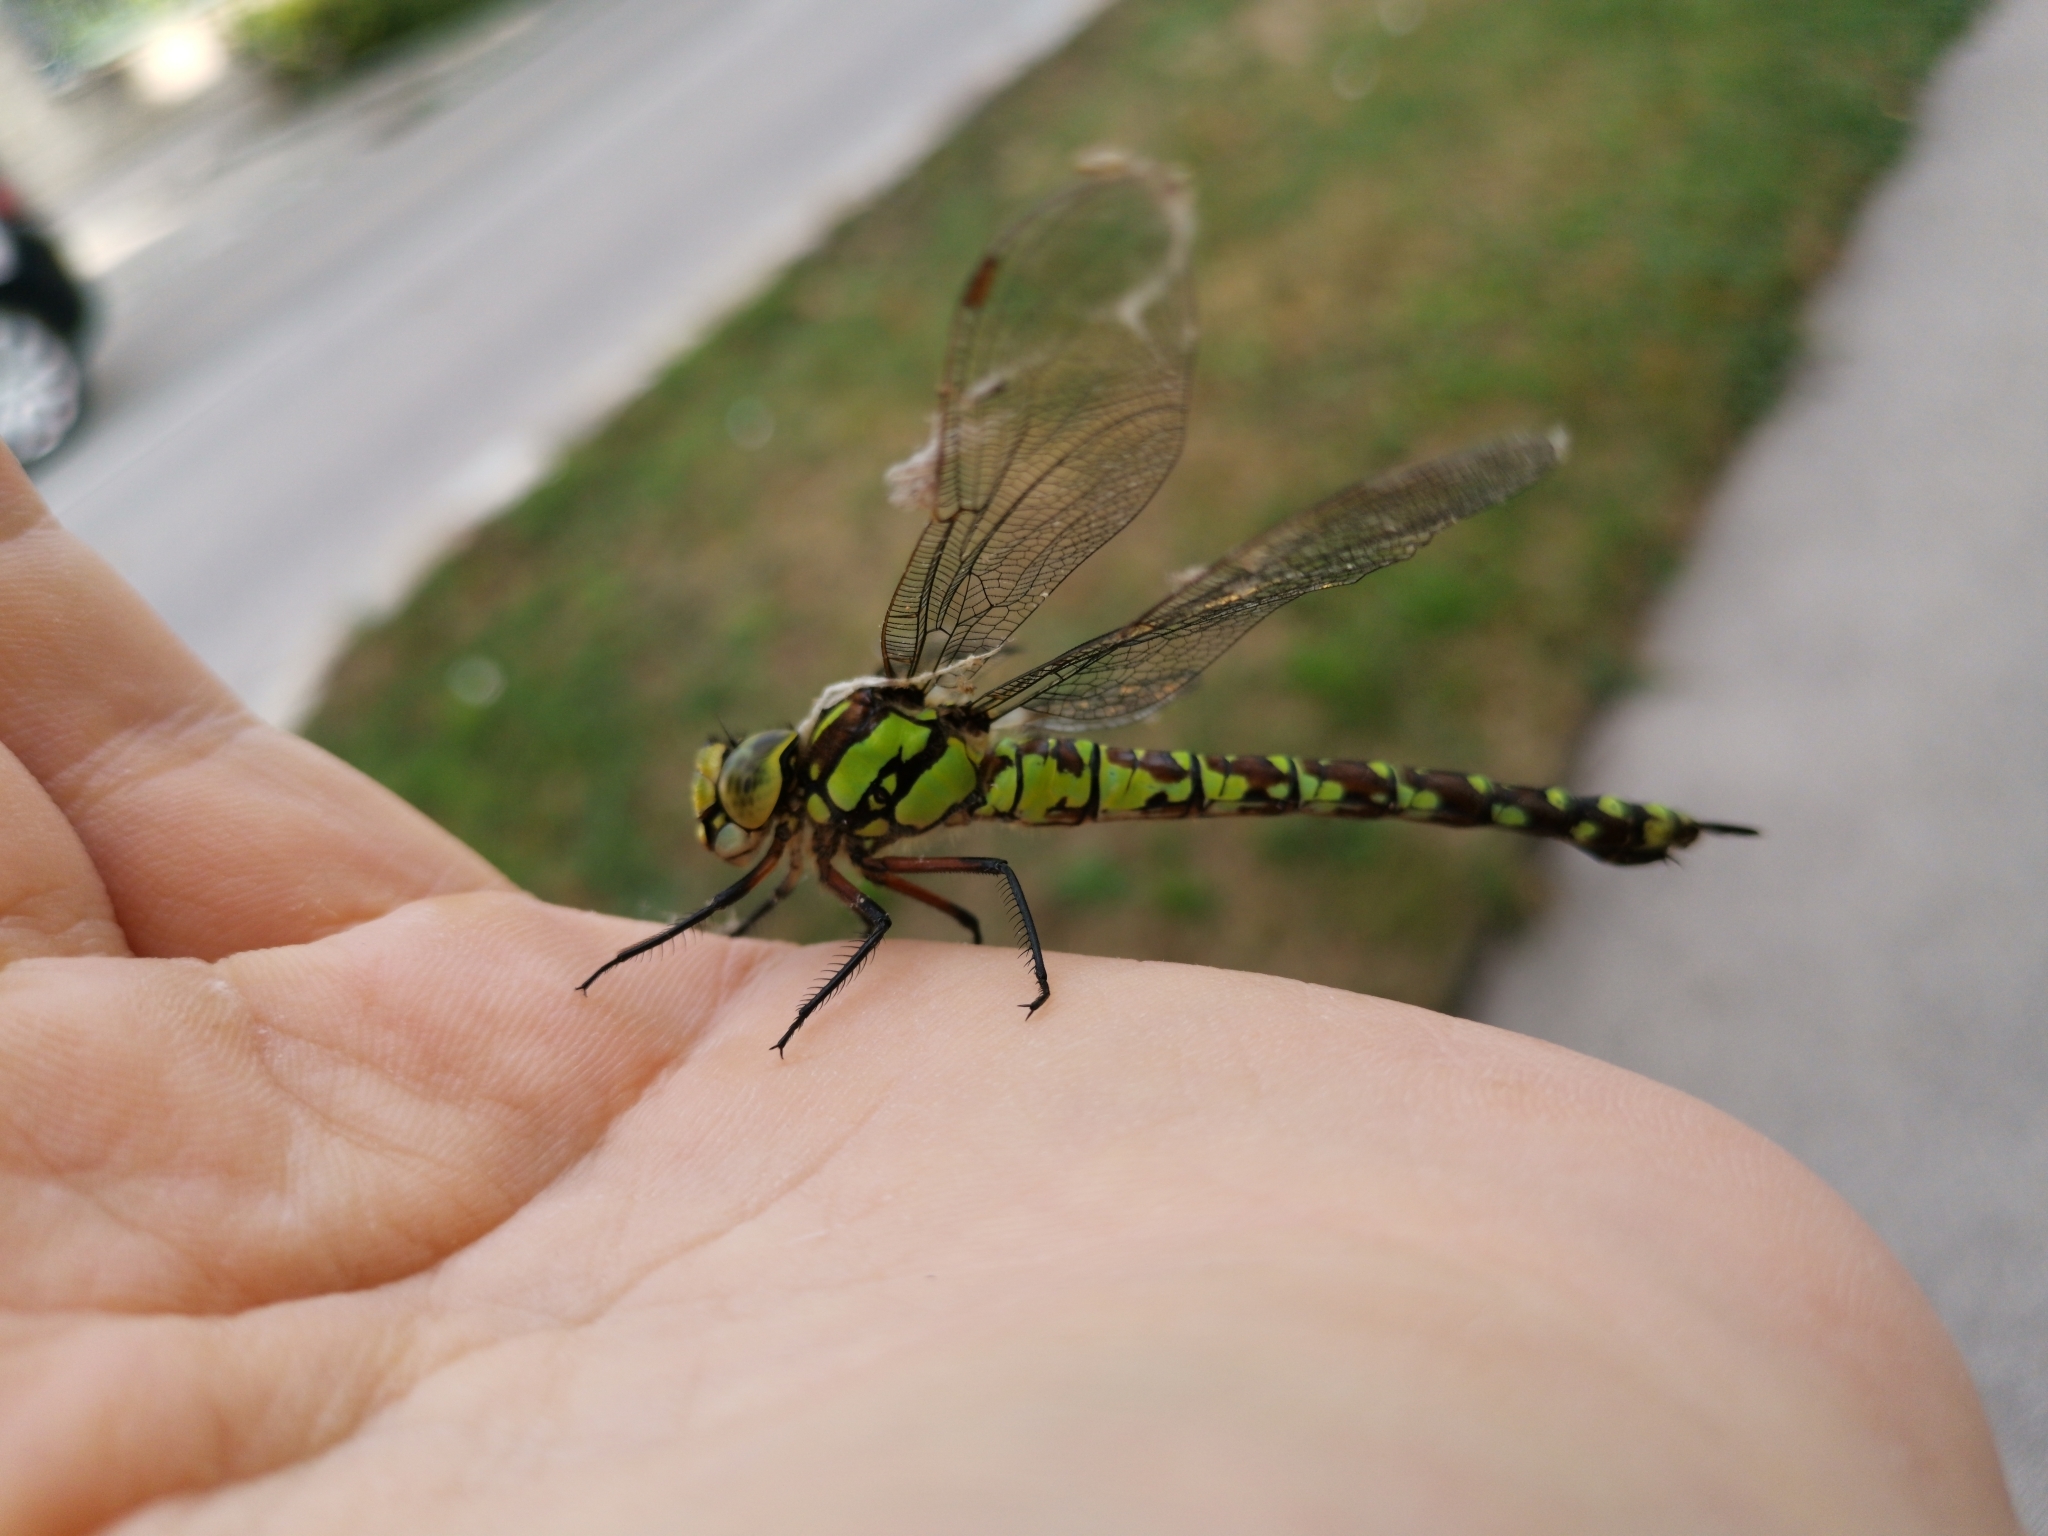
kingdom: Animalia
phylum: Arthropoda
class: Insecta
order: Odonata
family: Aeshnidae
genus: Aeshna
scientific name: Aeshna cyanea
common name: Southern hawker
